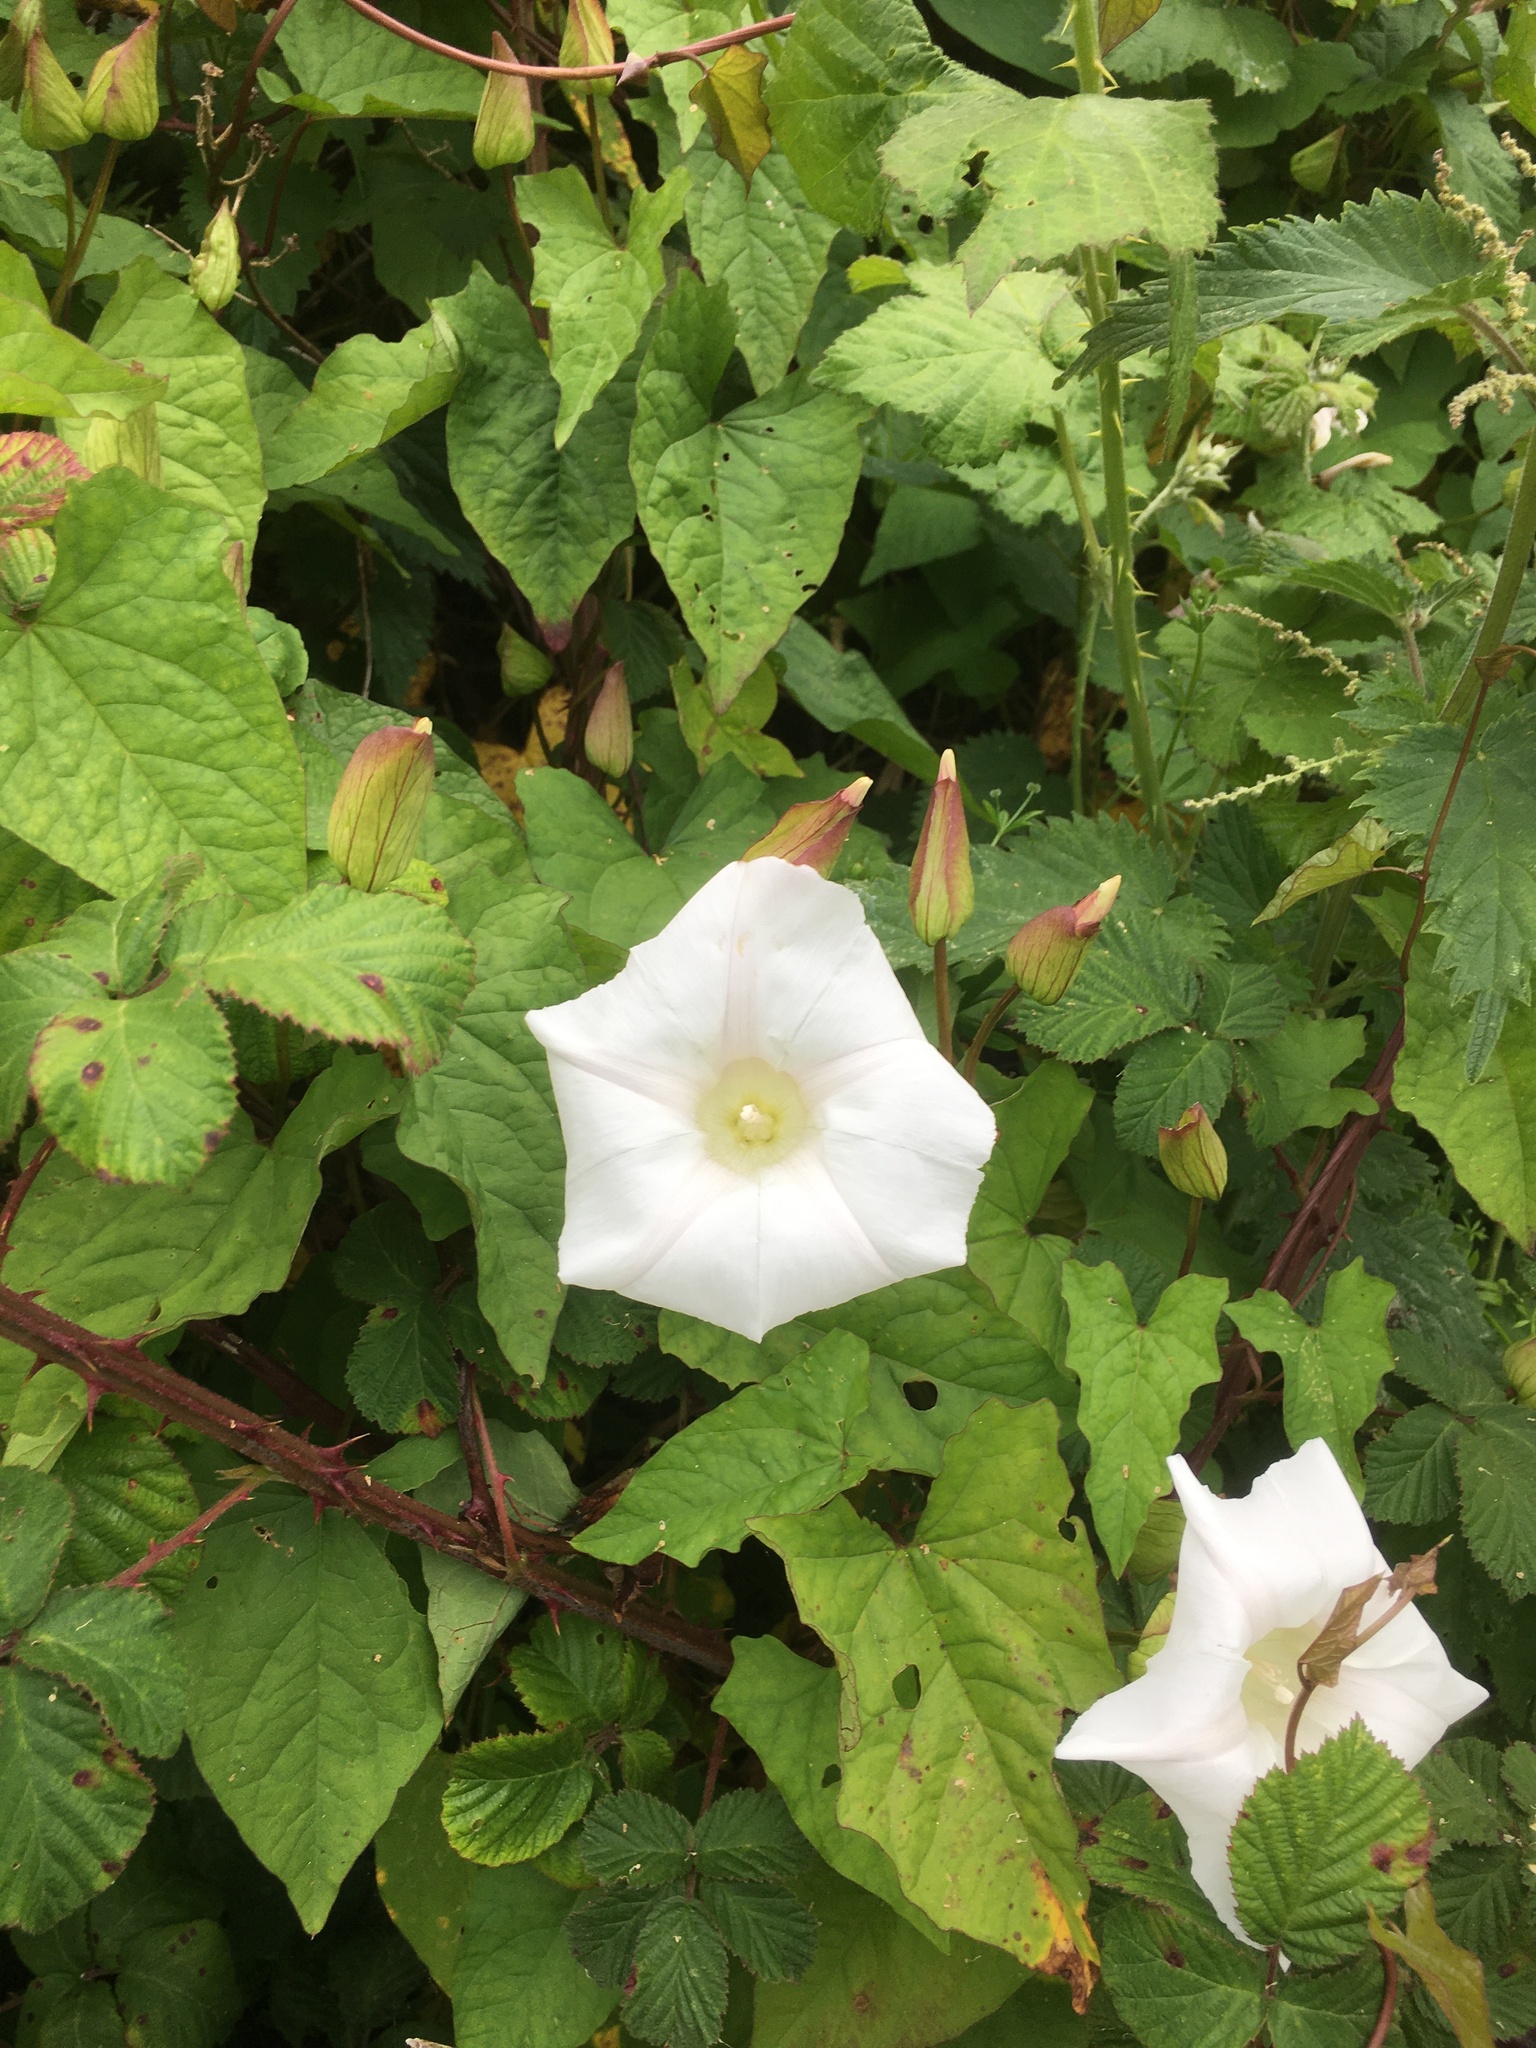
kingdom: Plantae
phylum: Tracheophyta
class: Magnoliopsida
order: Solanales
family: Convolvulaceae
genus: Calystegia
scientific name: Calystegia silvatica
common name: Large bindweed
